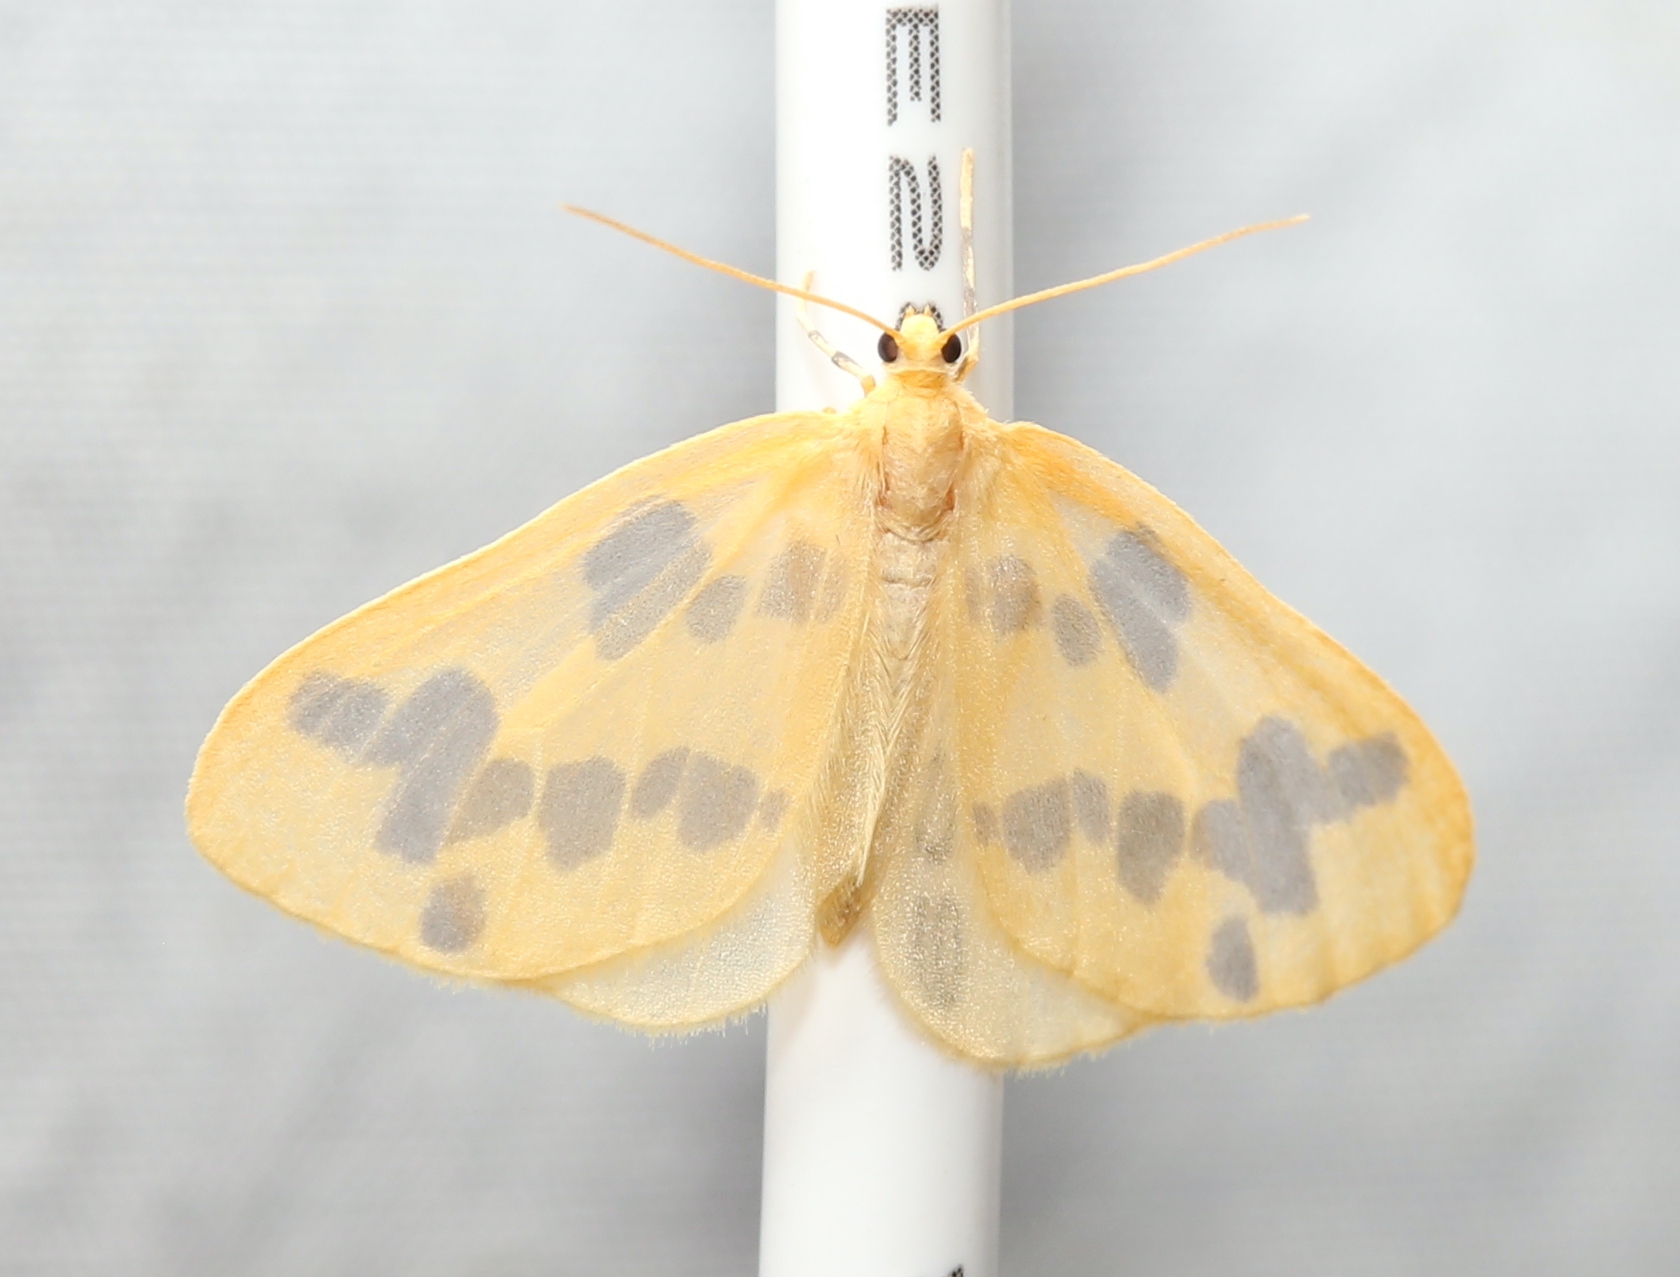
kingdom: Animalia
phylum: Arthropoda
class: Insecta
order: Lepidoptera
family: Geometridae
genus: Eubaphe
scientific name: Eubaphe mendica
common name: Beggar
